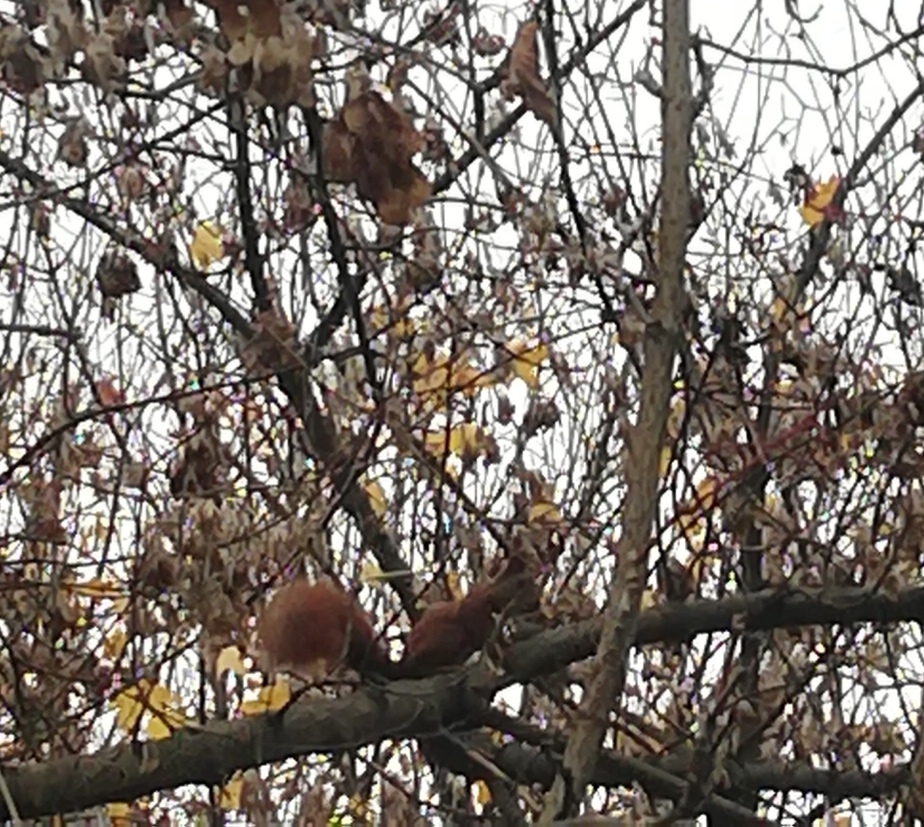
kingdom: Animalia
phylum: Chordata
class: Mammalia
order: Rodentia
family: Sciuridae
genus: Sciurus
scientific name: Sciurus vulgaris
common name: Eurasian red squirrel
